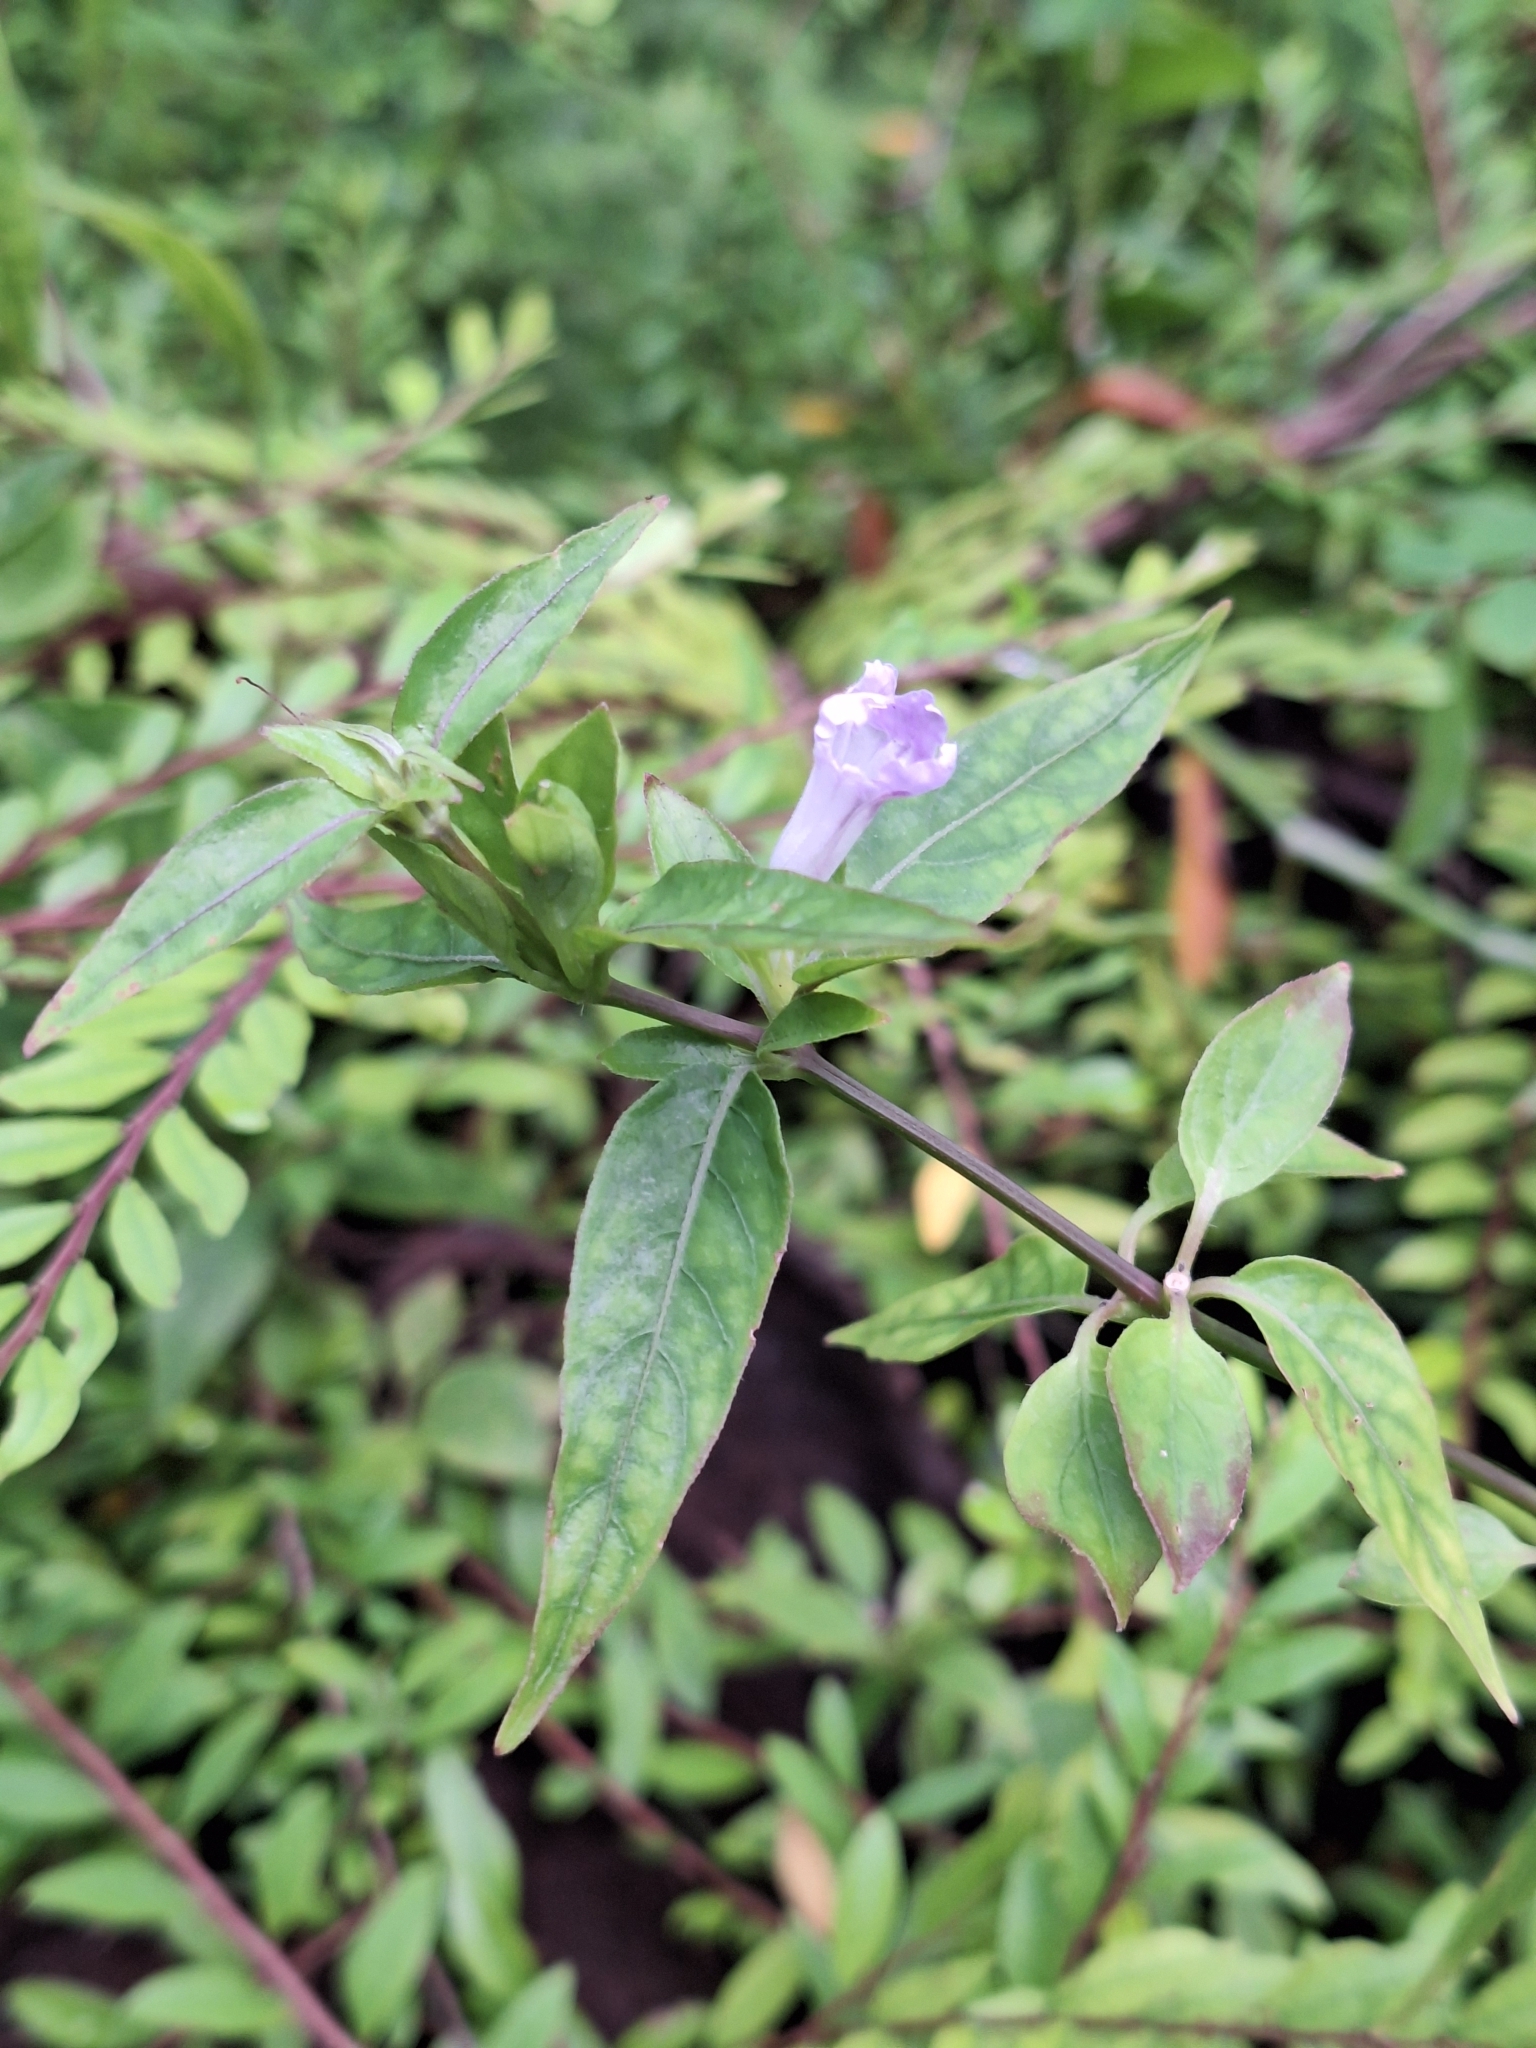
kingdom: Plantae
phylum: Tracheophyta
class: Magnoliopsida
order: Lamiales
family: Acanthaceae
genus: Ruellia
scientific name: Ruellia repens
